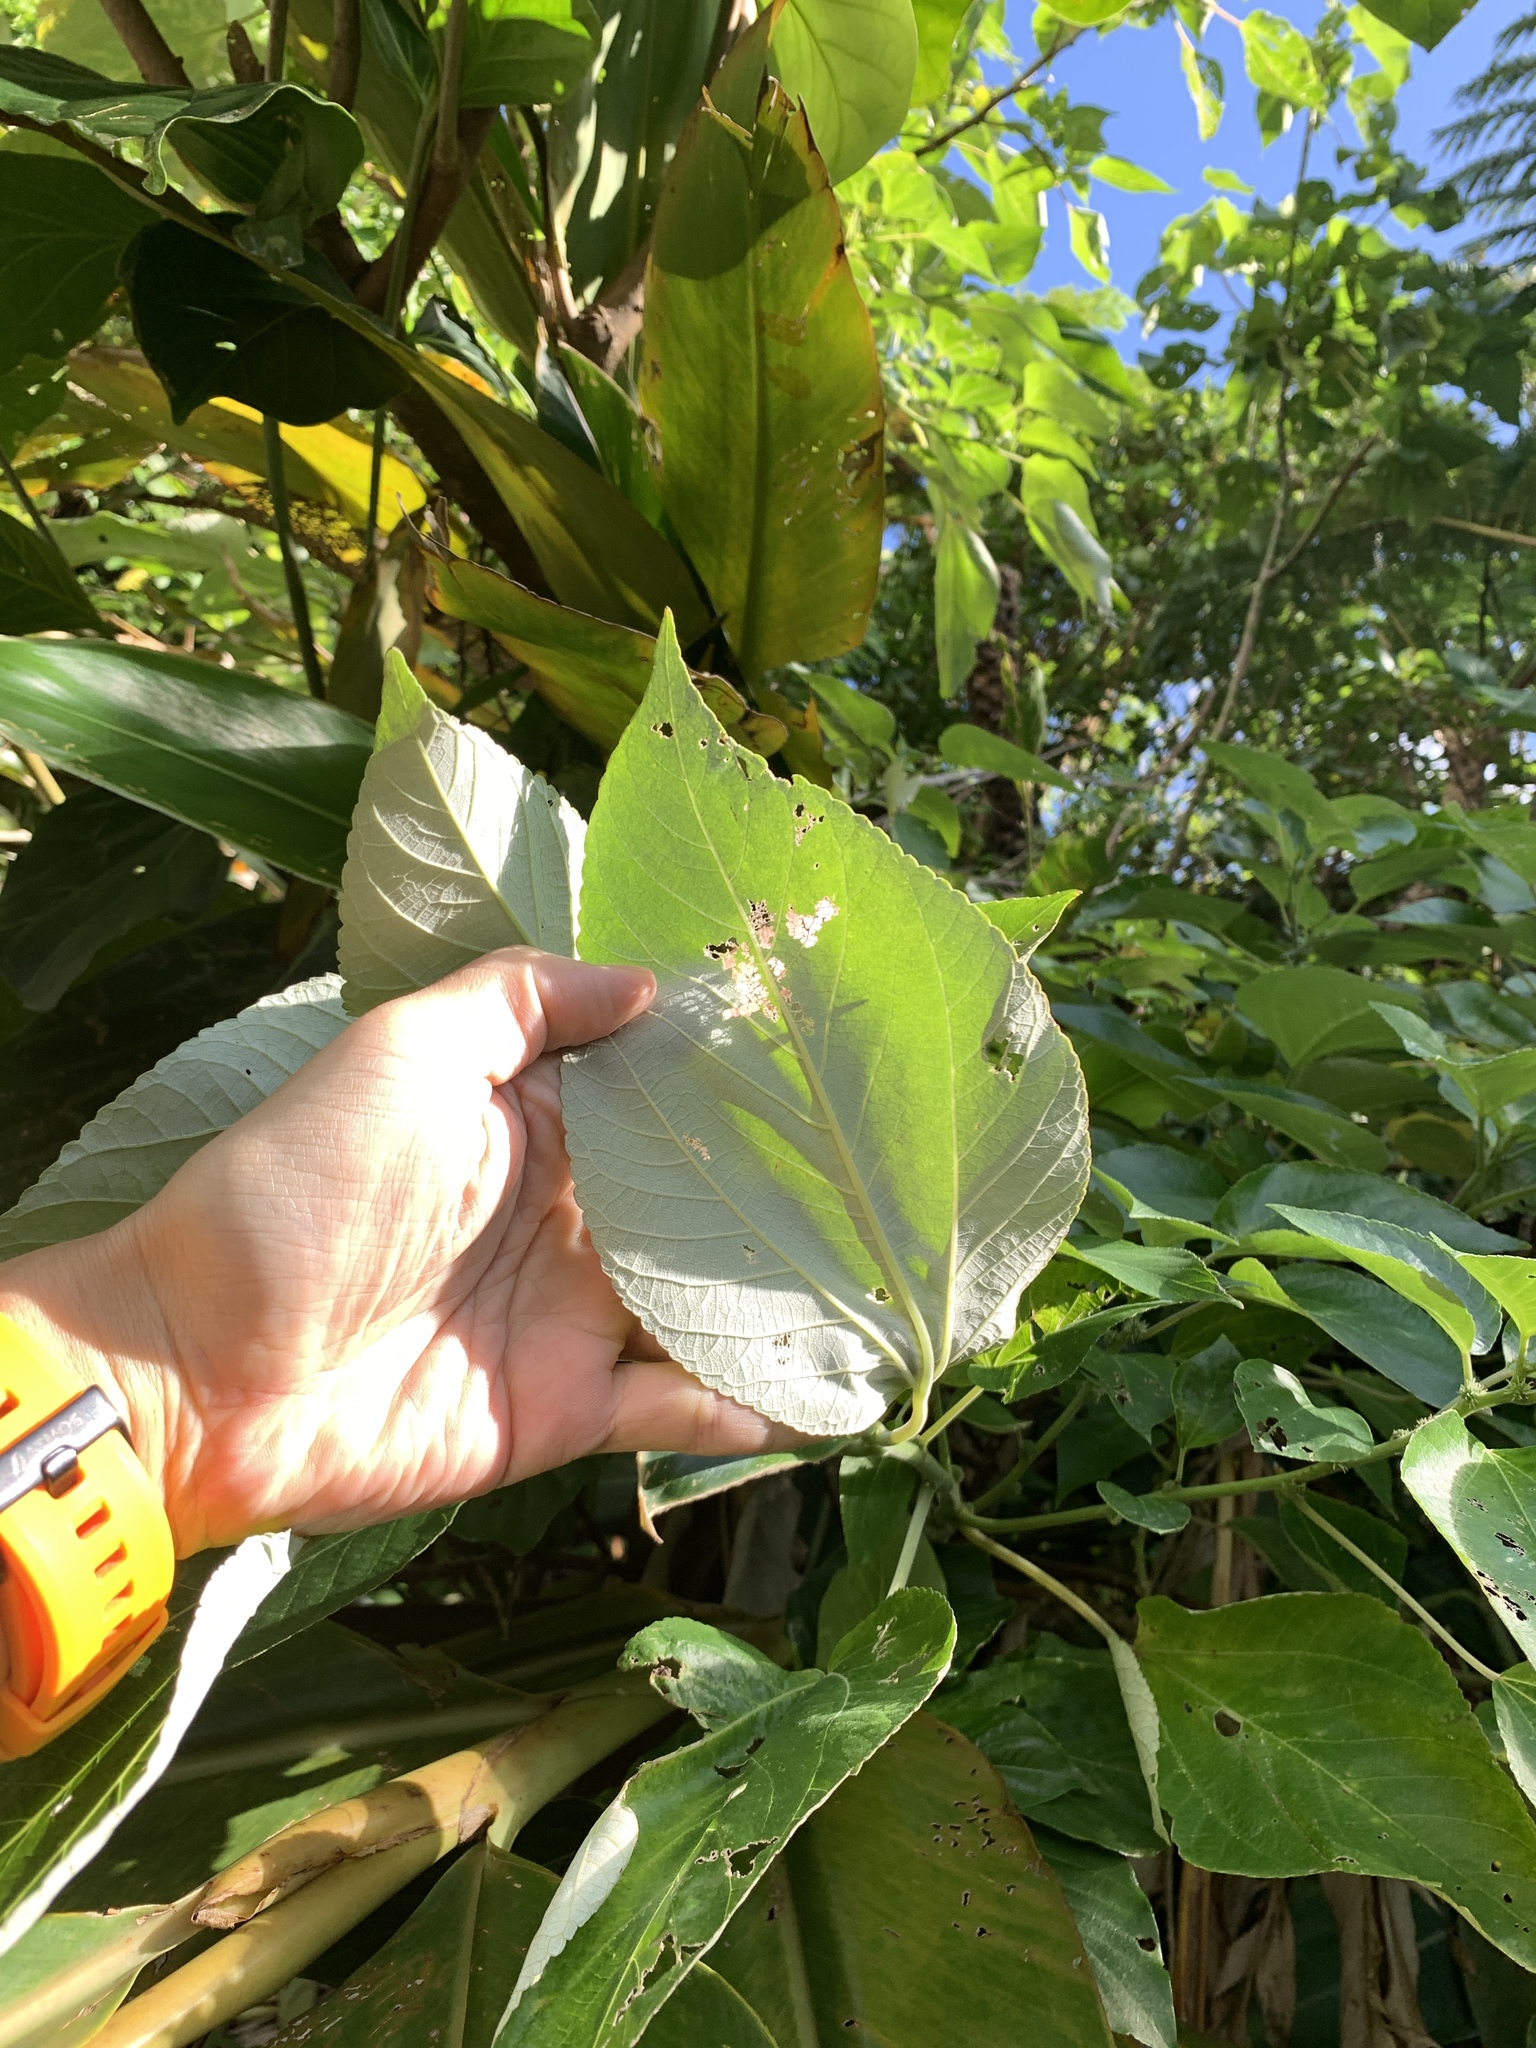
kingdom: Plantae
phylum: Tracheophyta
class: Magnoliopsida
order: Rosales
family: Urticaceae
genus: Pipturus
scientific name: Pipturus arborescens
